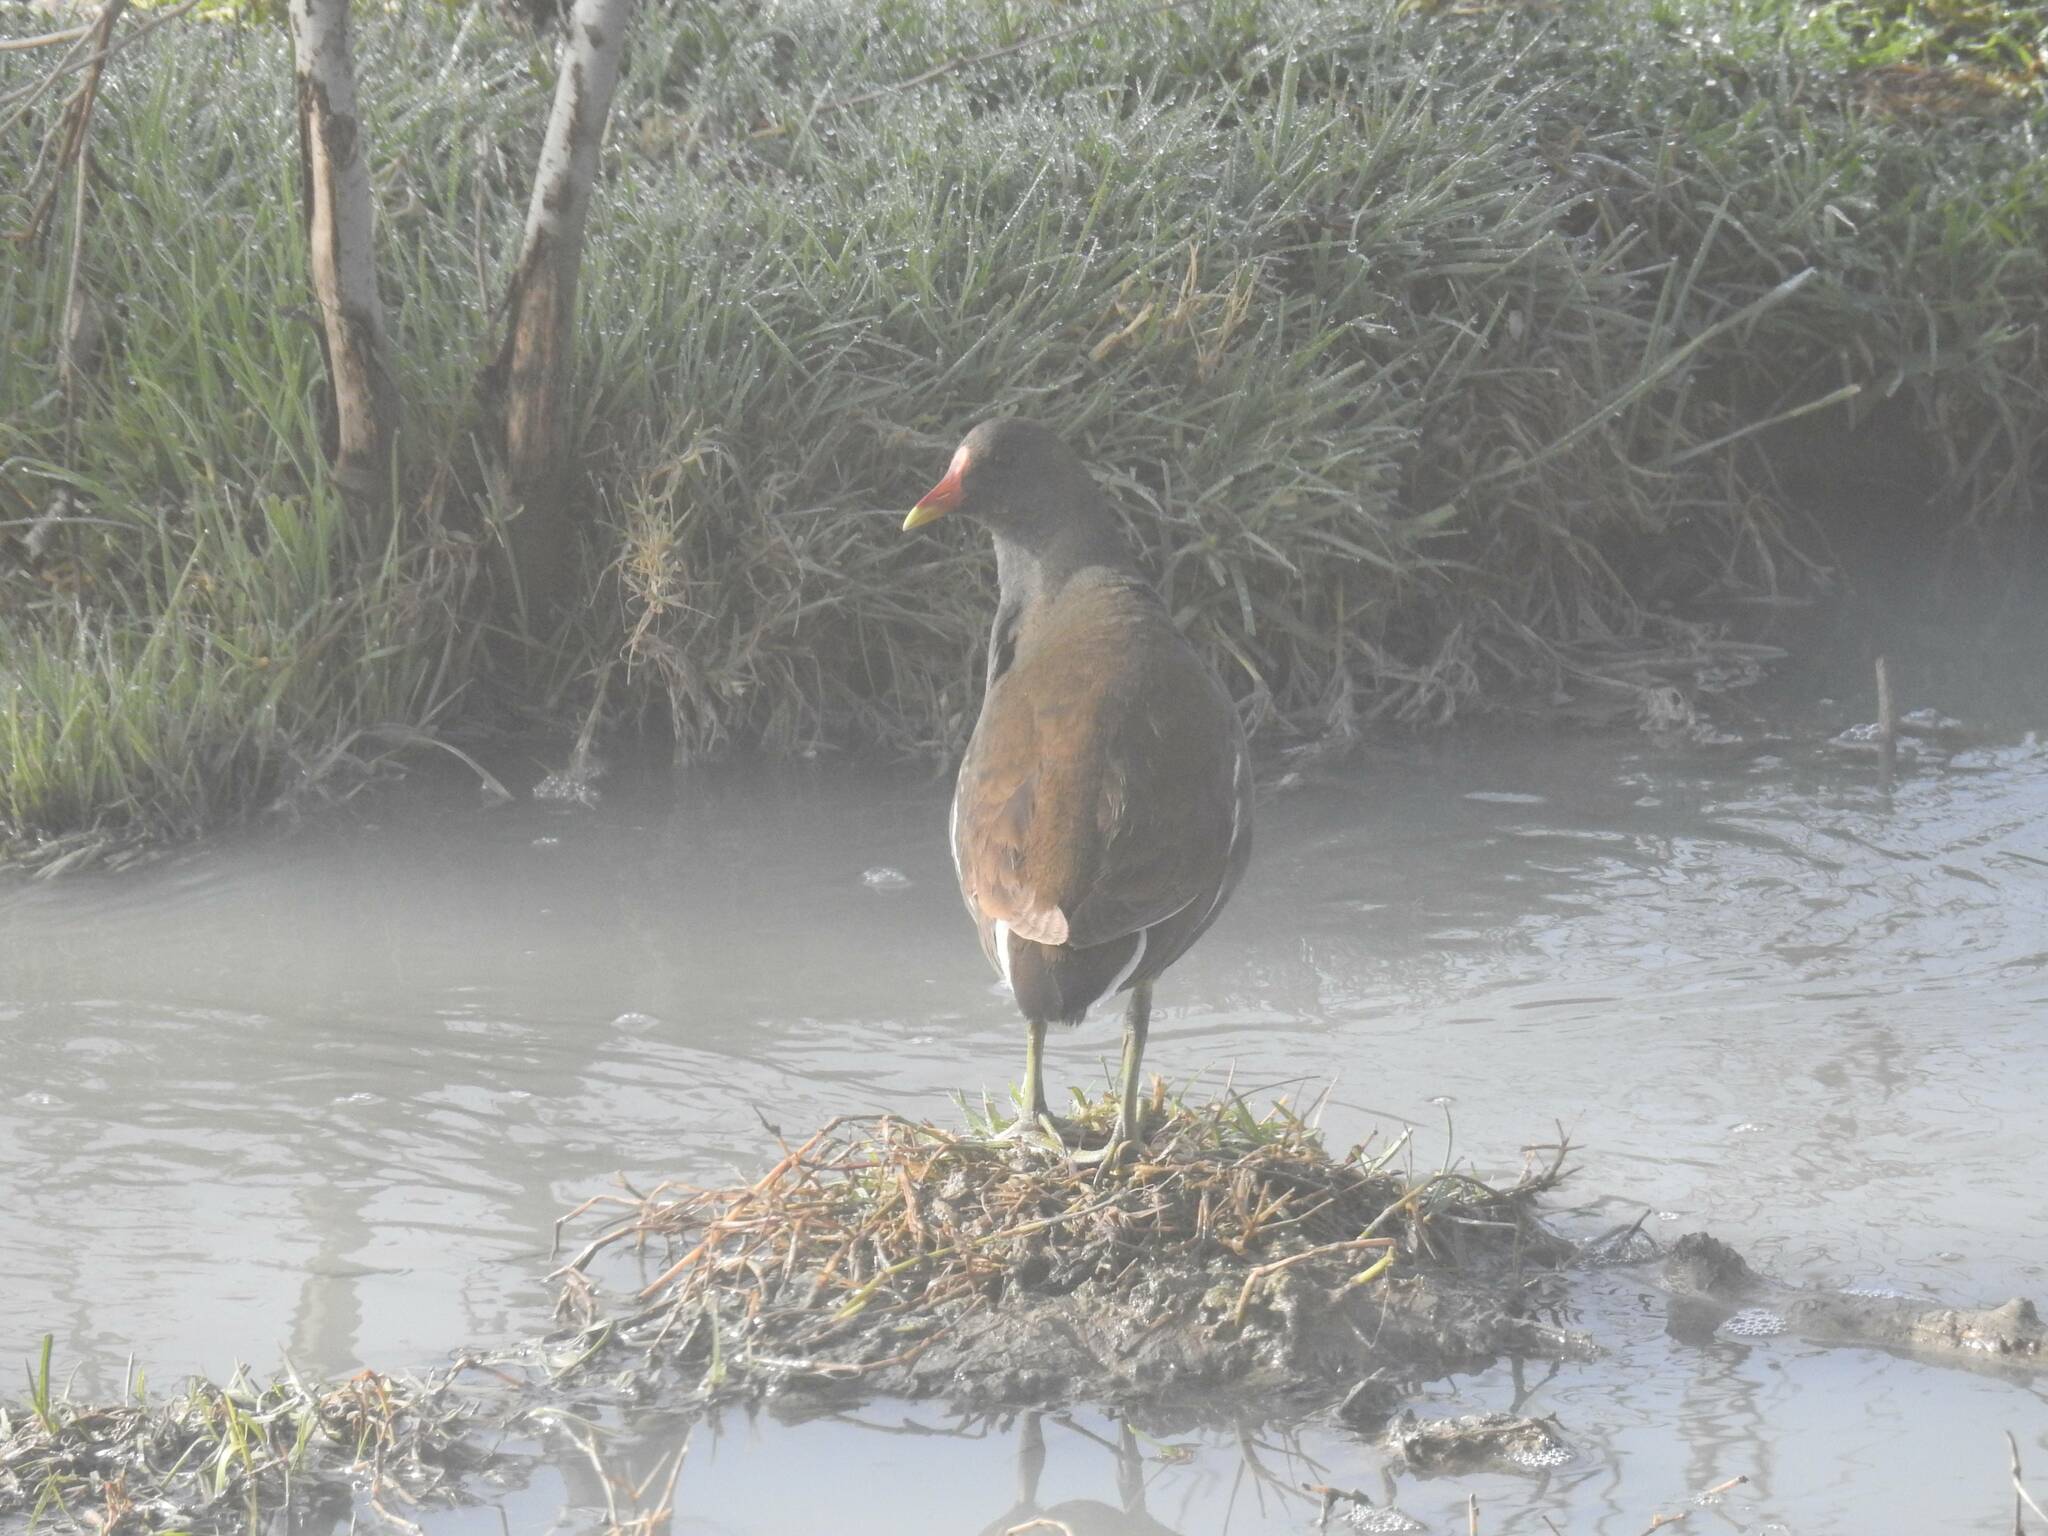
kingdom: Animalia
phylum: Chordata
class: Aves
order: Gruiformes
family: Rallidae
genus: Gallinula
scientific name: Gallinula chloropus
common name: Common moorhen
